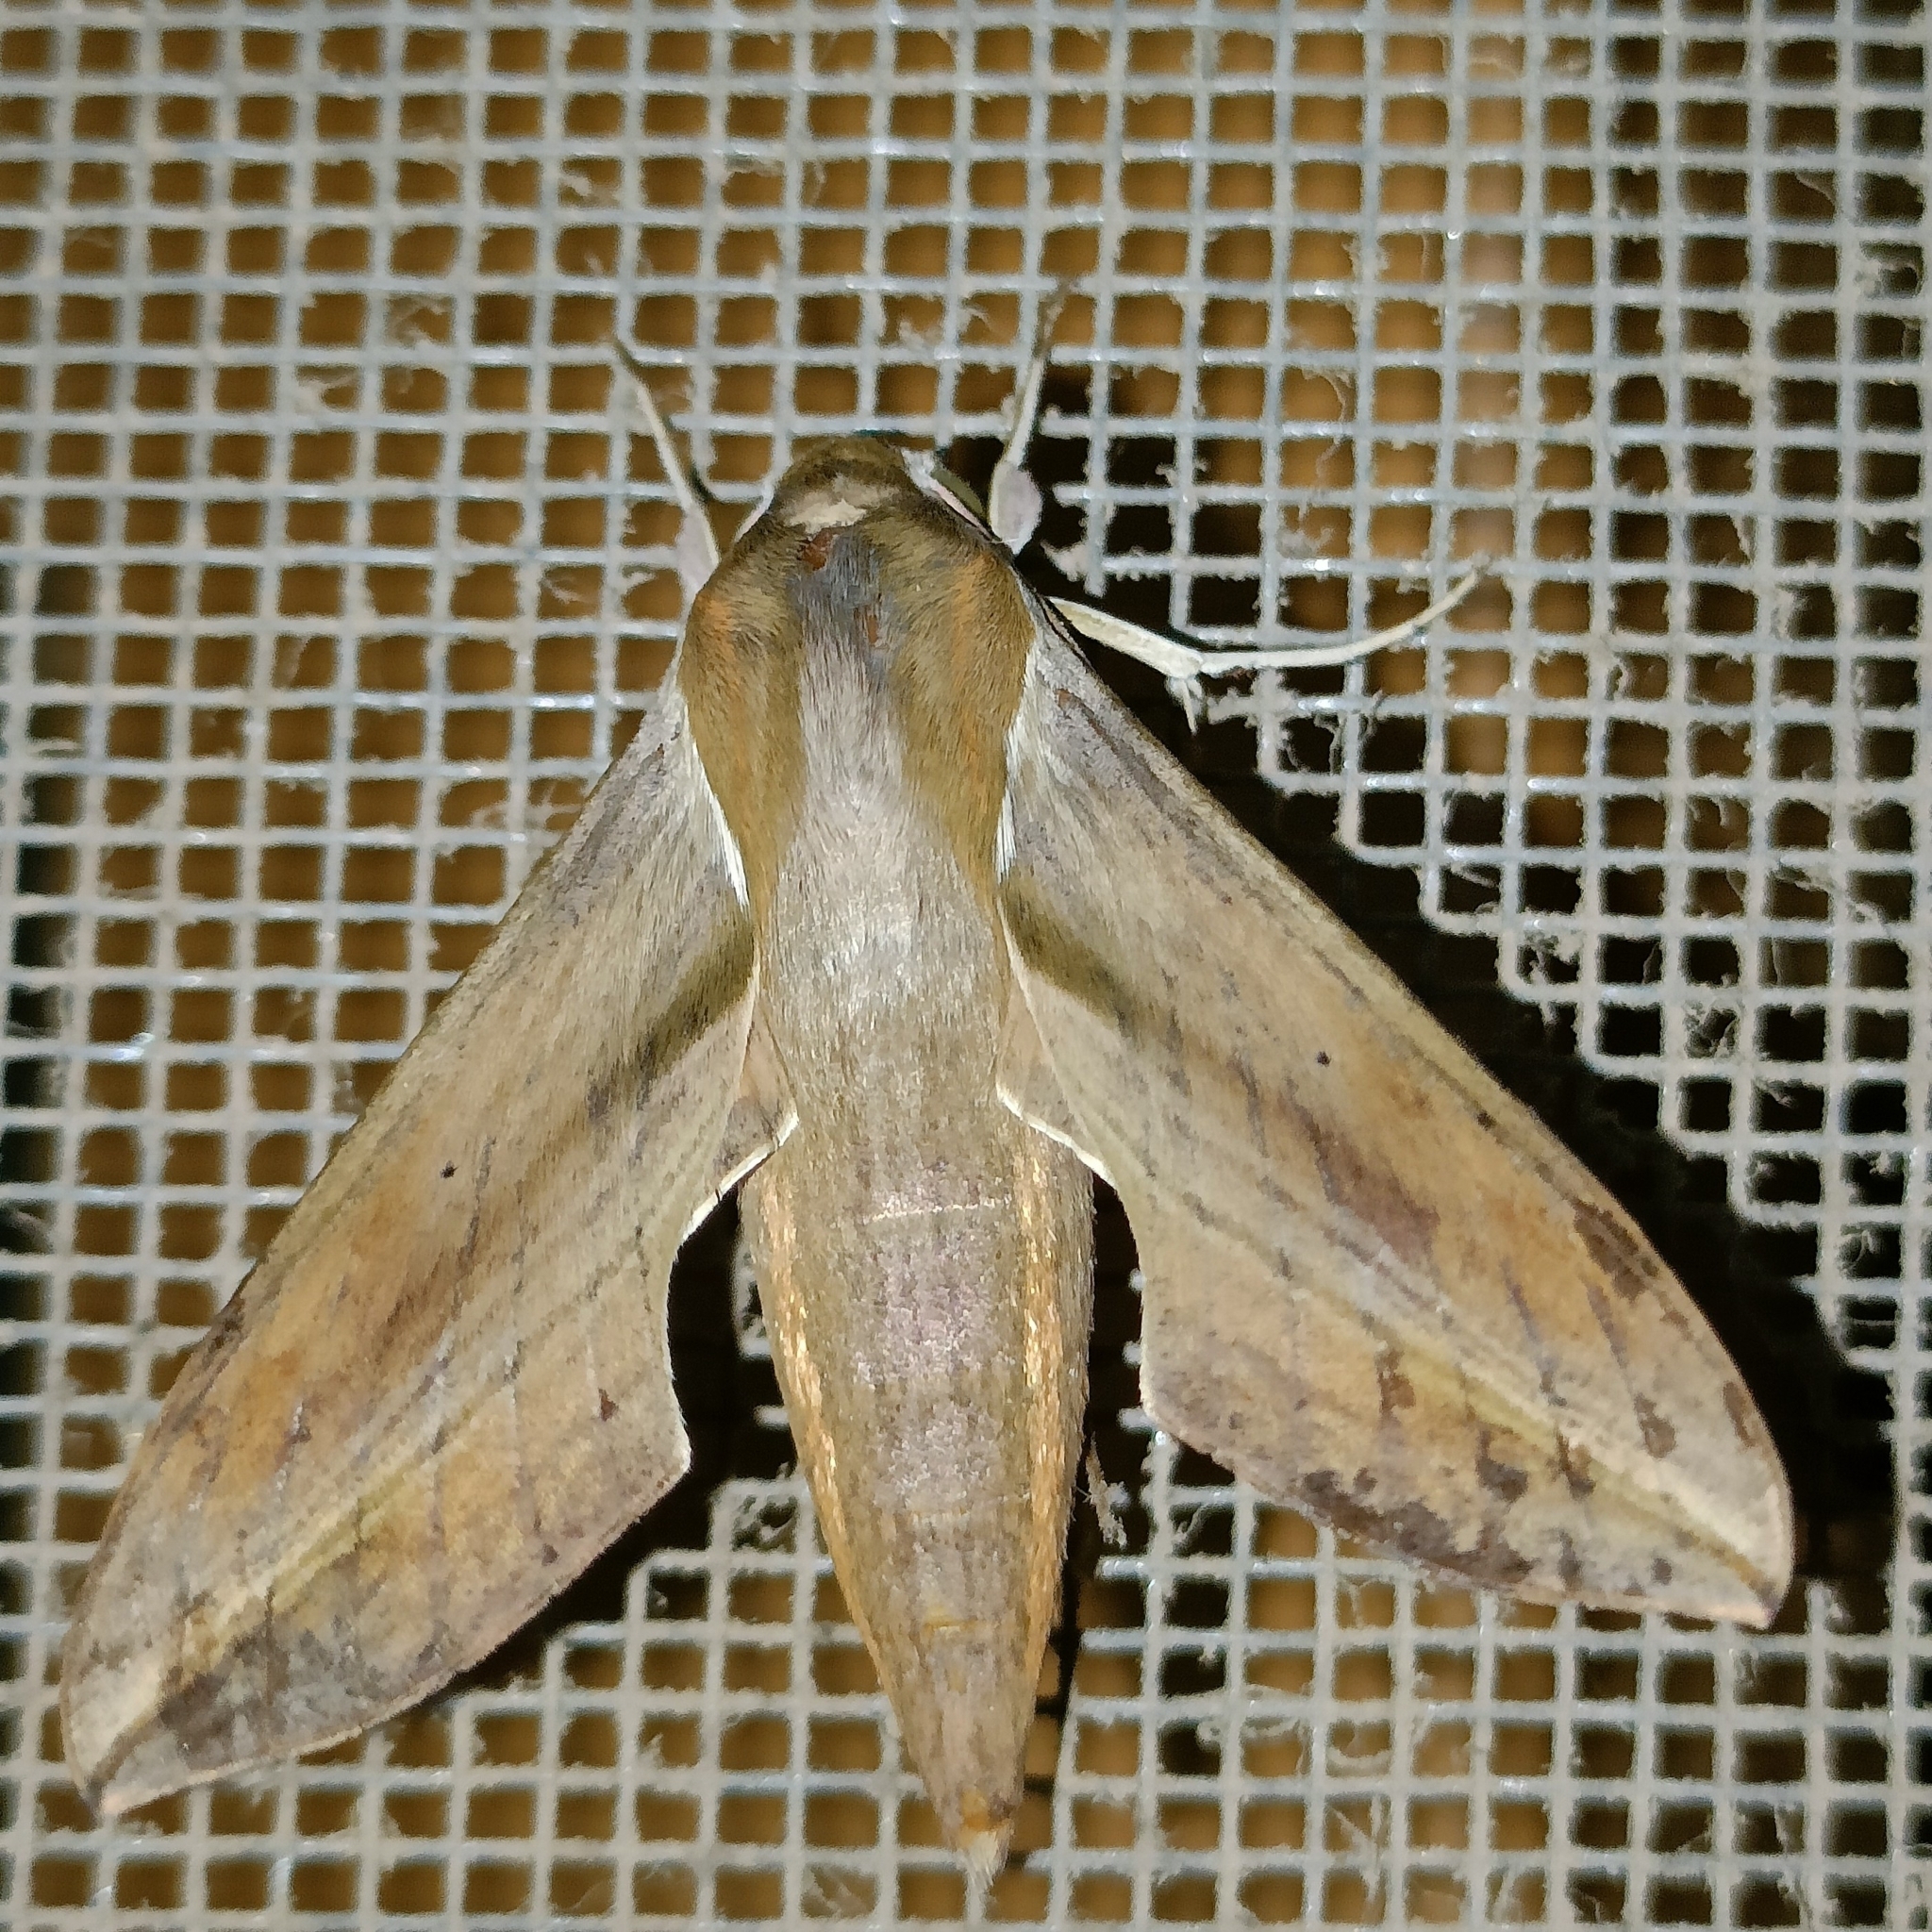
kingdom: Animalia
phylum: Arthropoda
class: Insecta
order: Lepidoptera
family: Sphingidae
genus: Hippotion
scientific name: Hippotion rosetta
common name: Vine hawk moth
